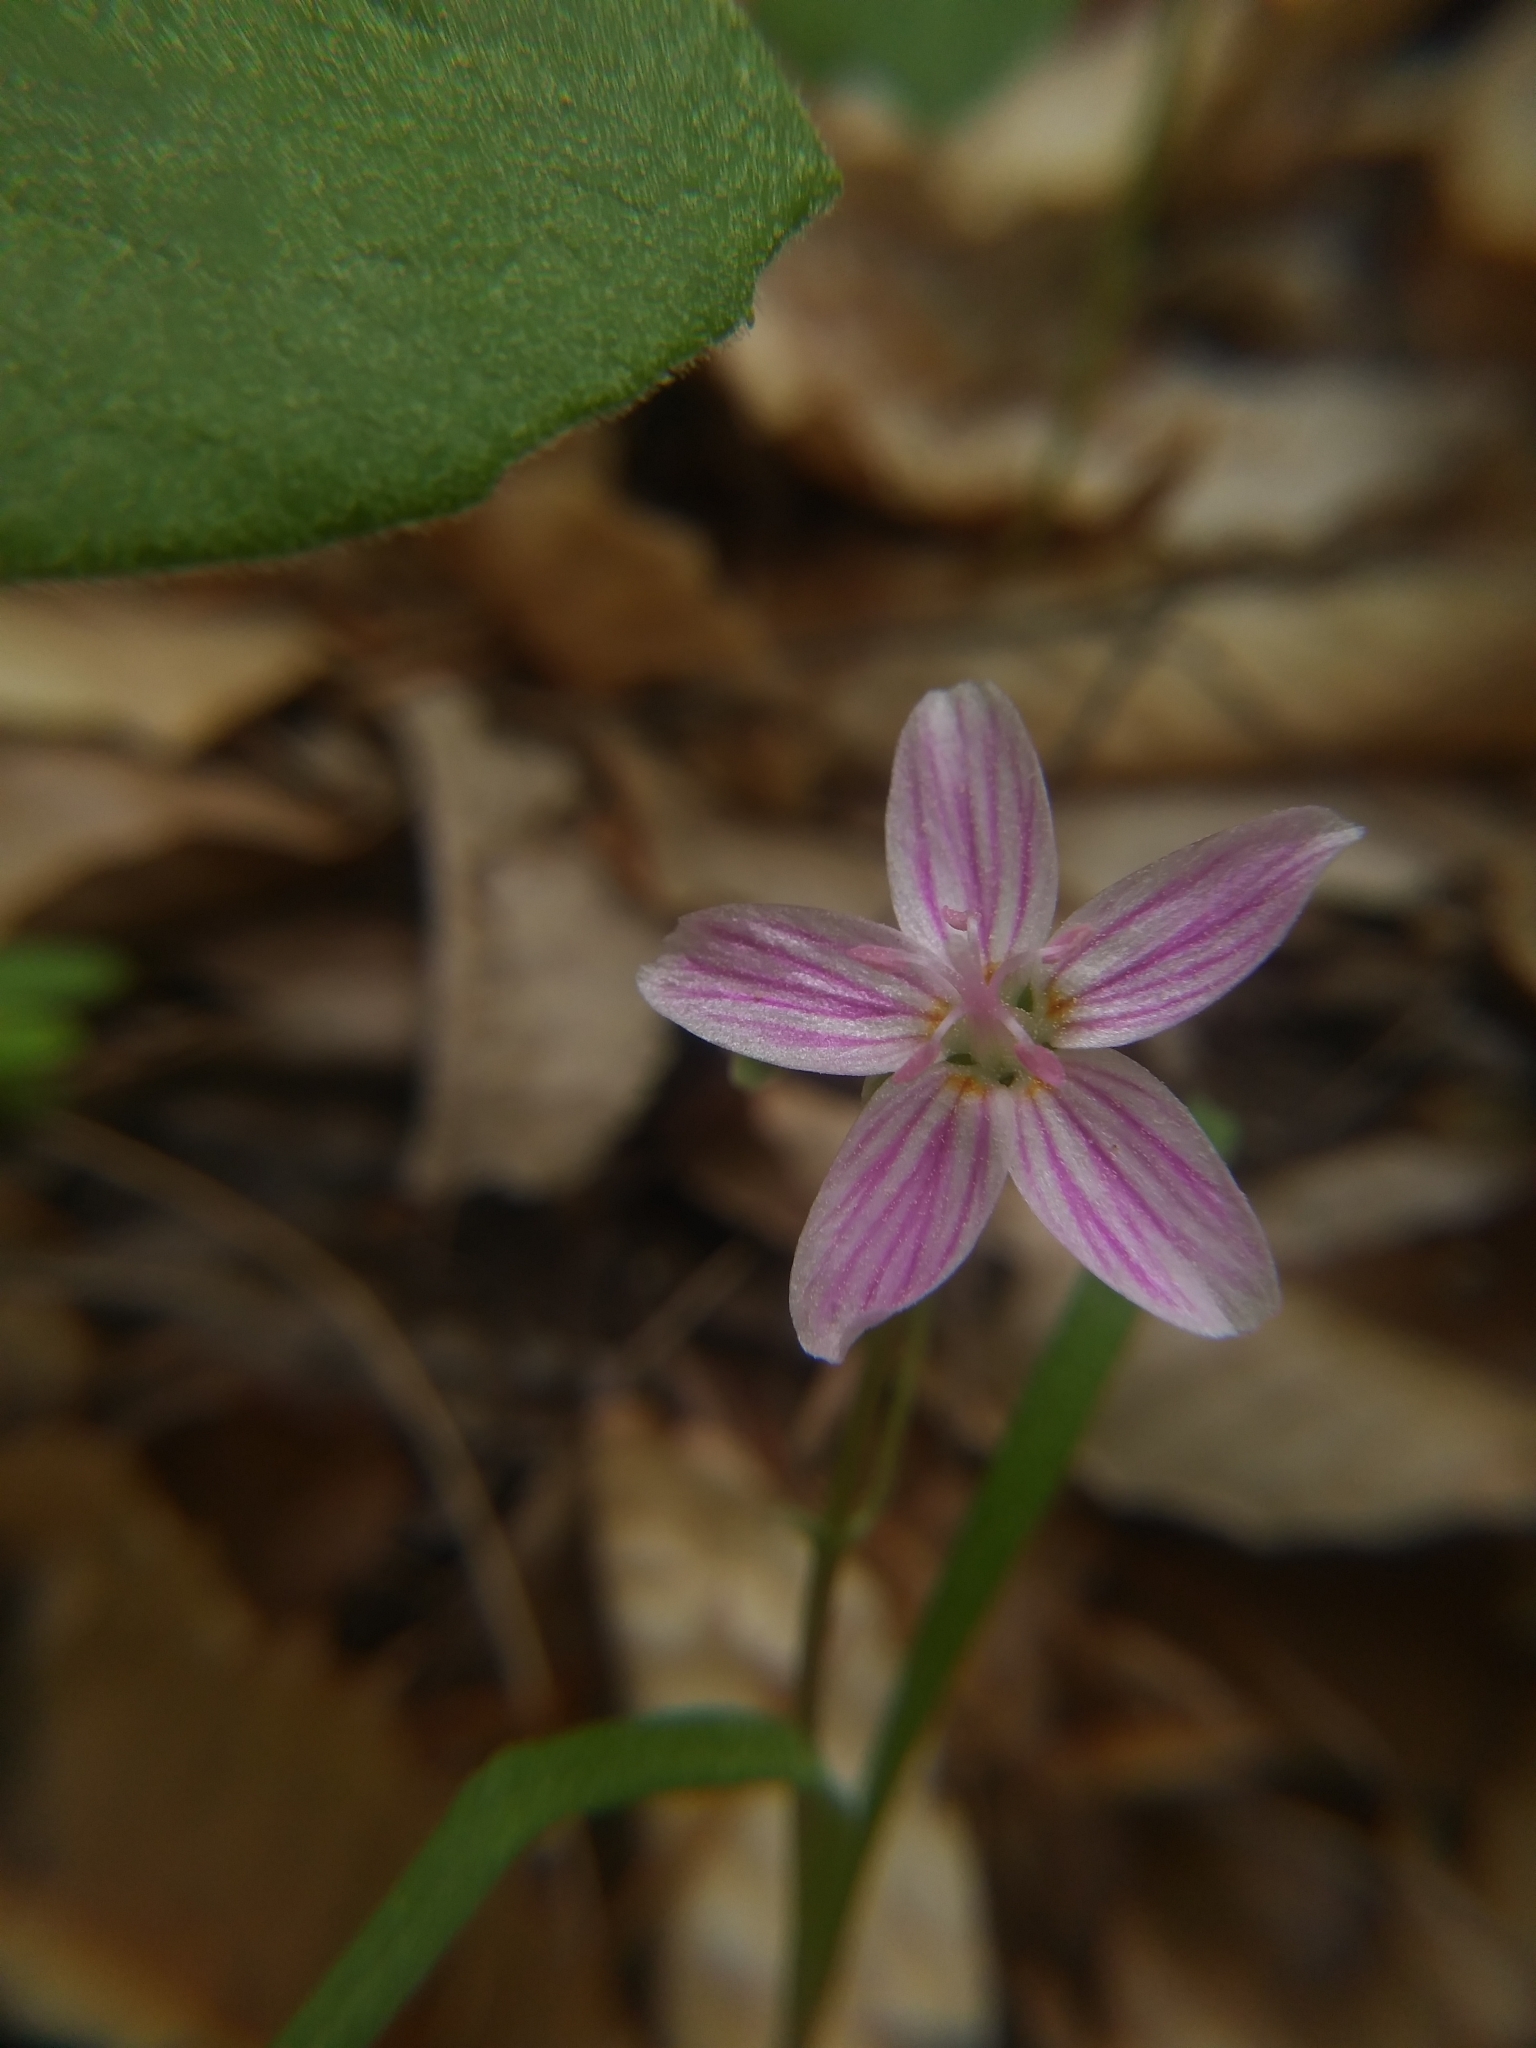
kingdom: Plantae
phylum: Tracheophyta
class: Magnoliopsida
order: Caryophyllales
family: Montiaceae
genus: Claytonia
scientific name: Claytonia virginica
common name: Virginia springbeauty
